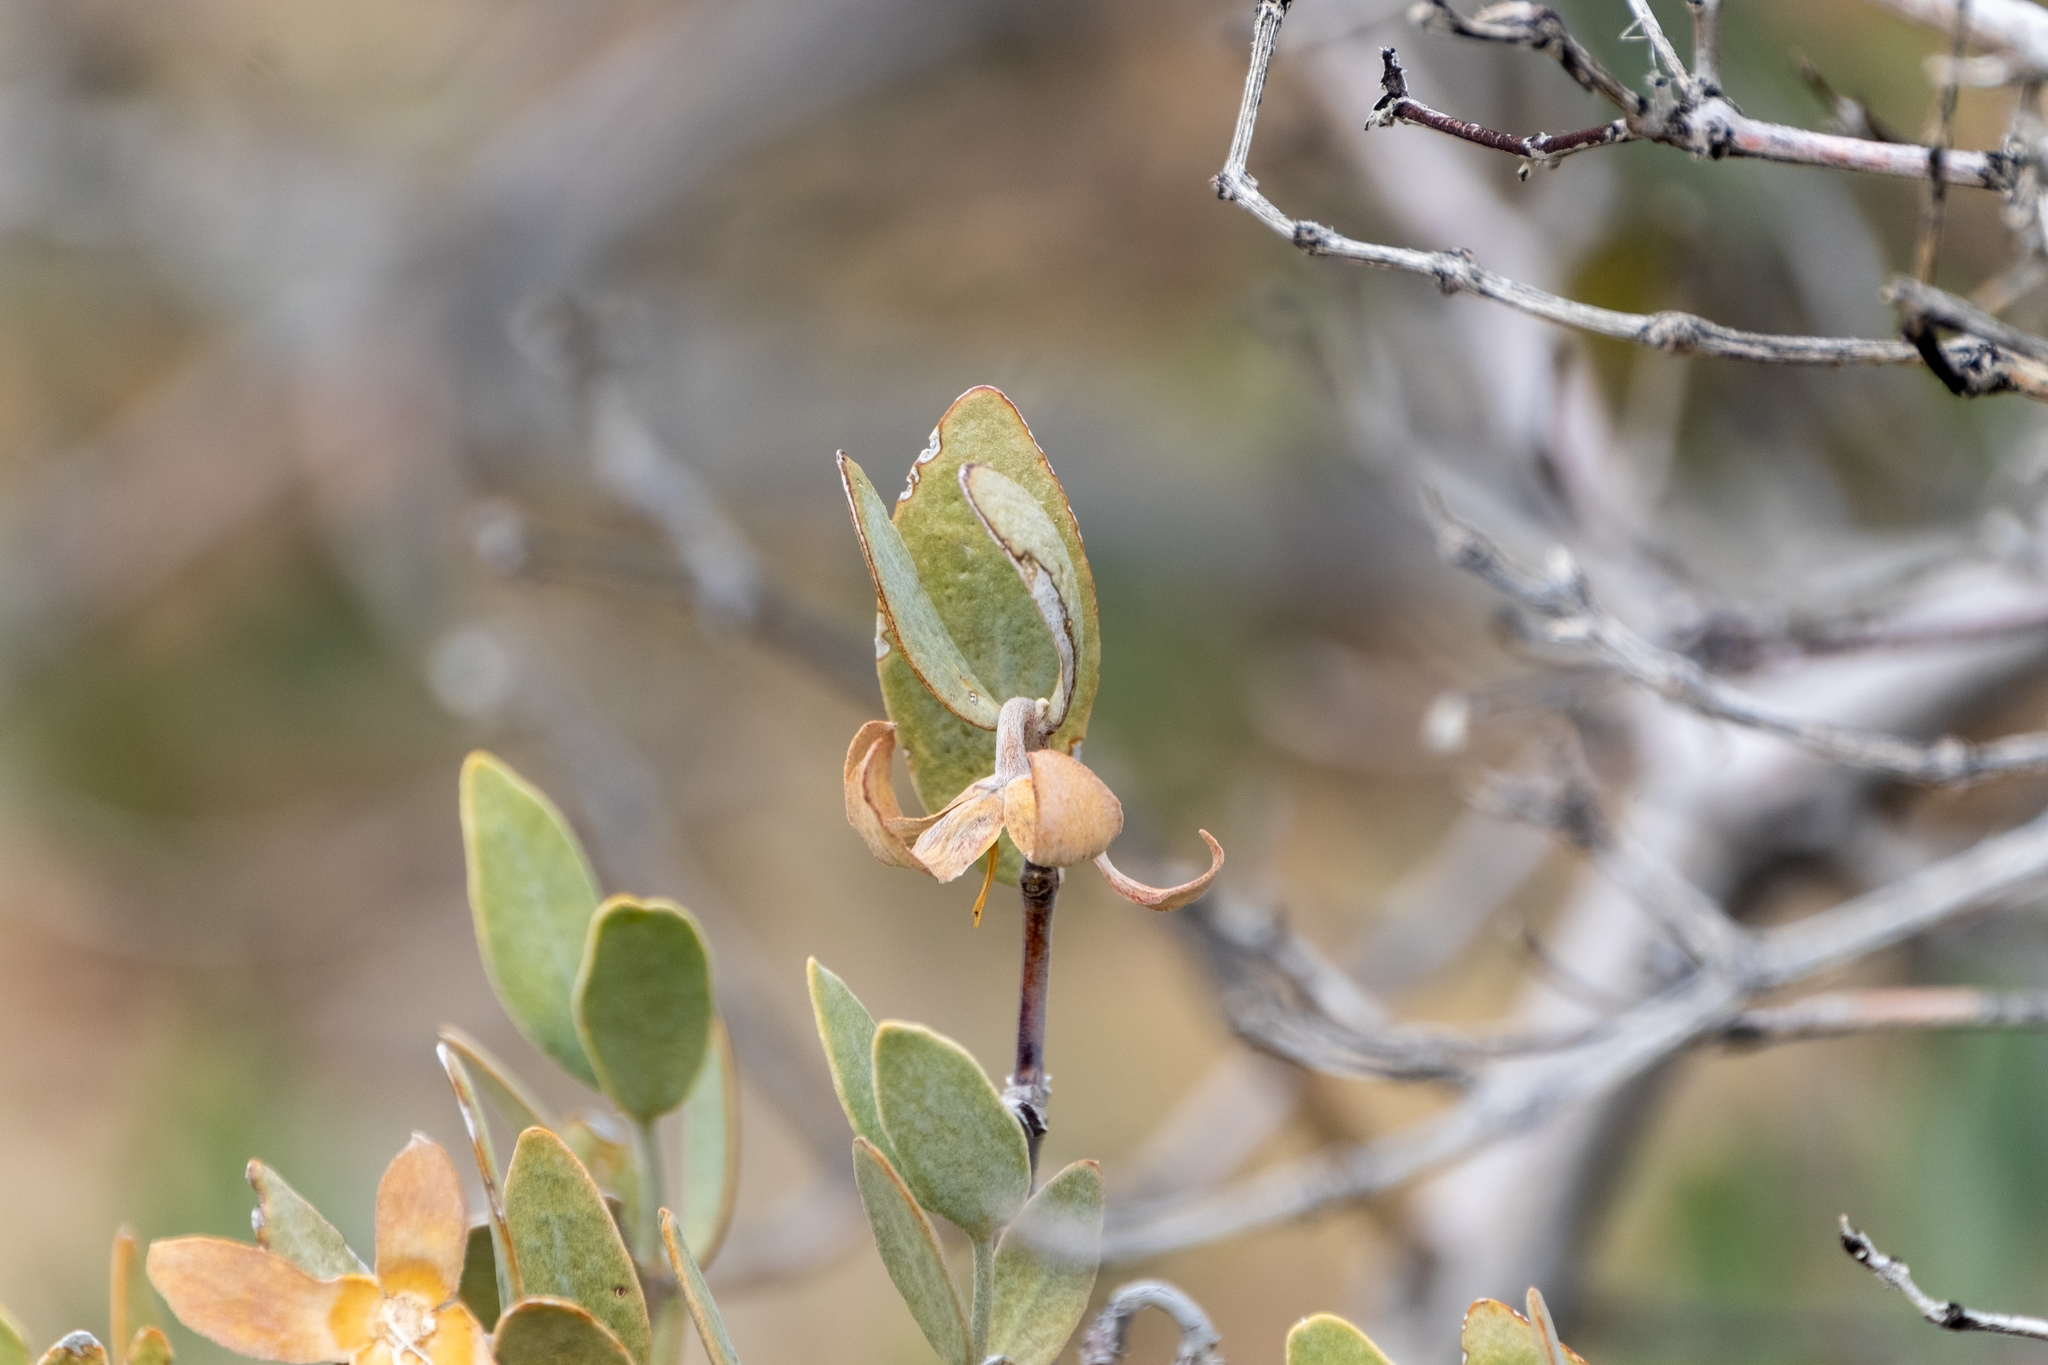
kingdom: Plantae
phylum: Tracheophyta
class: Magnoliopsida
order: Caryophyllales
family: Simmondsiaceae
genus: Simmondsia
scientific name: Simmondsia chinensis
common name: Jojoba
